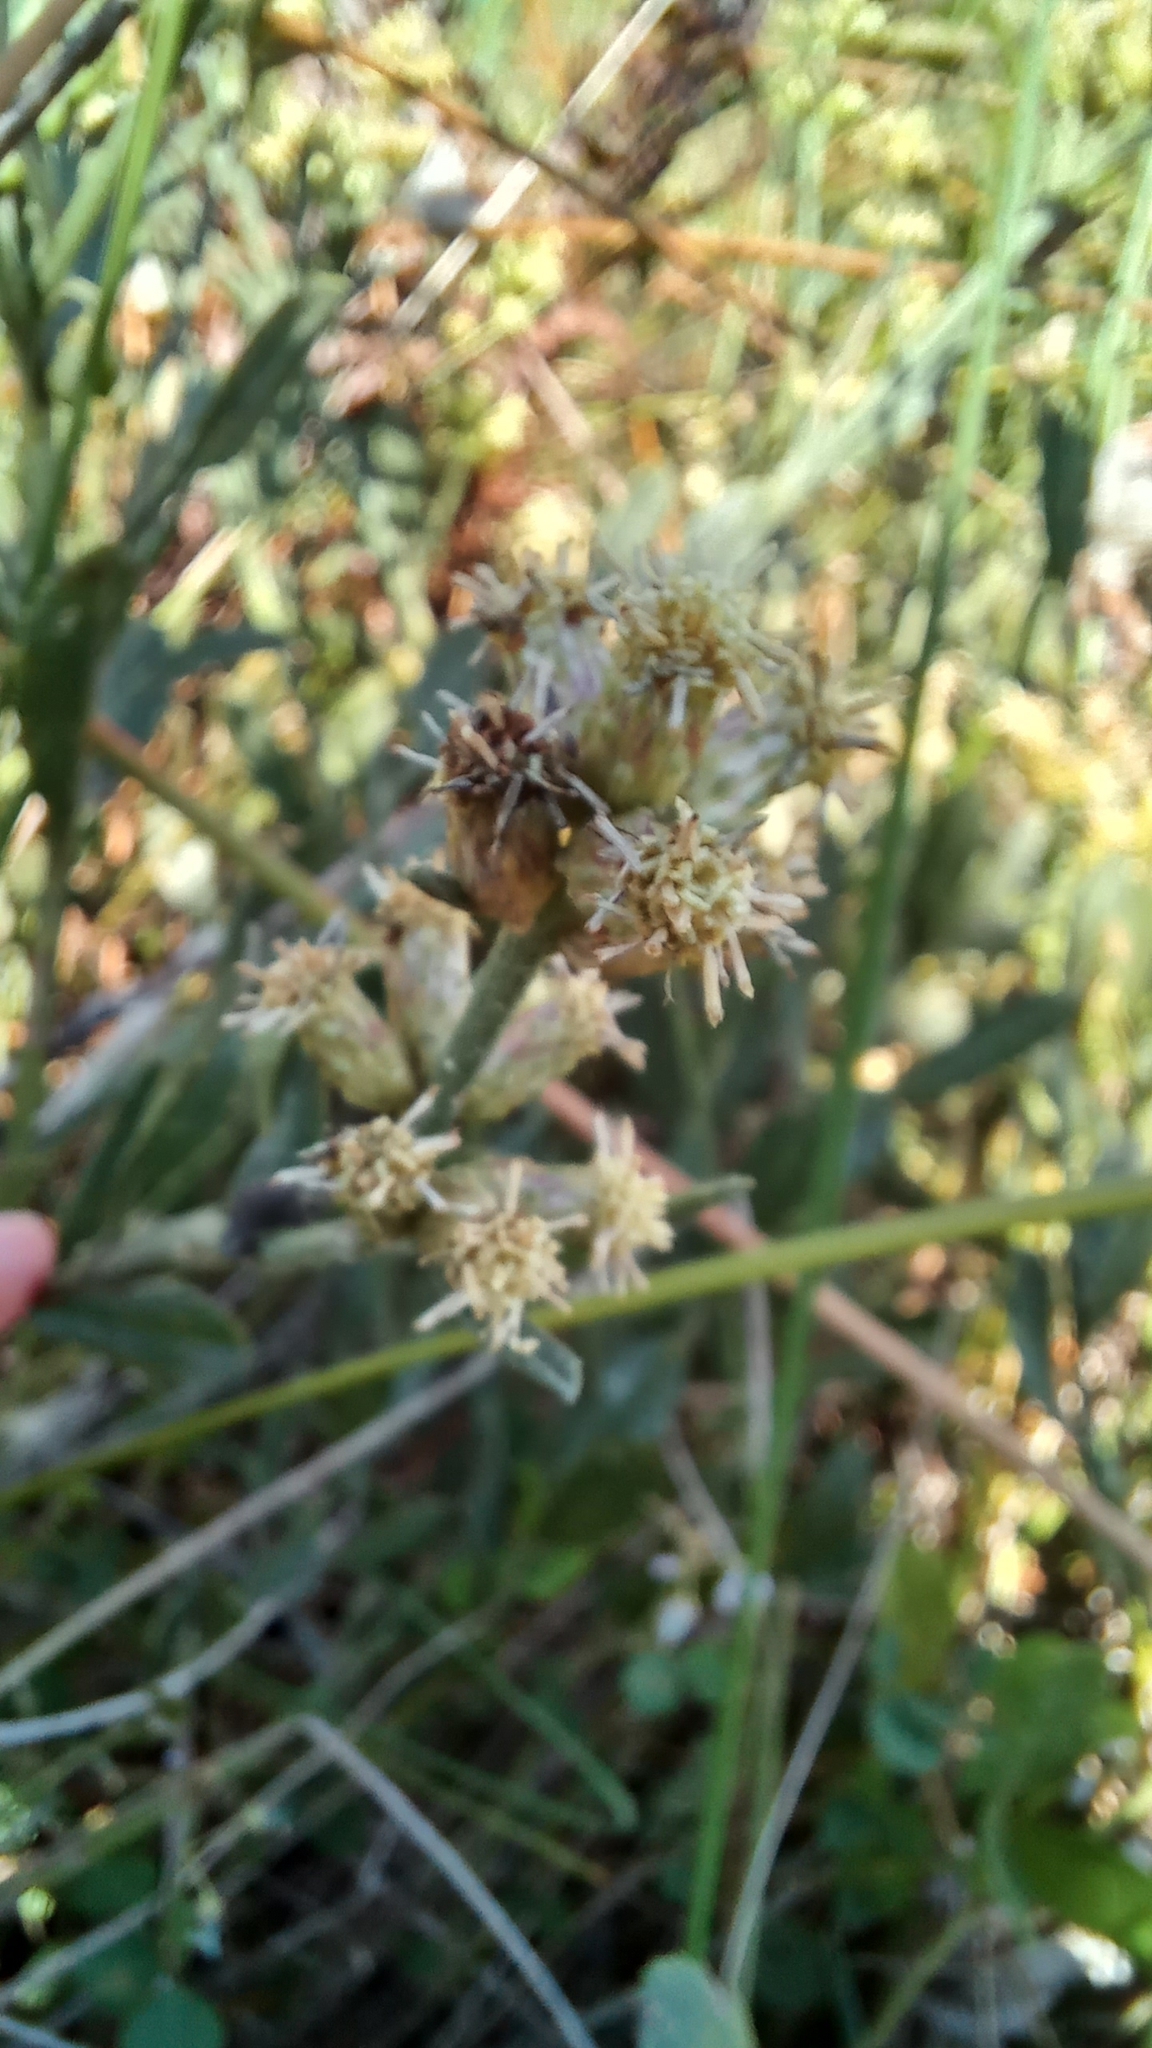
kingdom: Plantae
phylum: Tracheophyta
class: Magnoliopsida
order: Asterales
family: Asteraceae
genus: Baccharis
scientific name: Baccharis spicata
